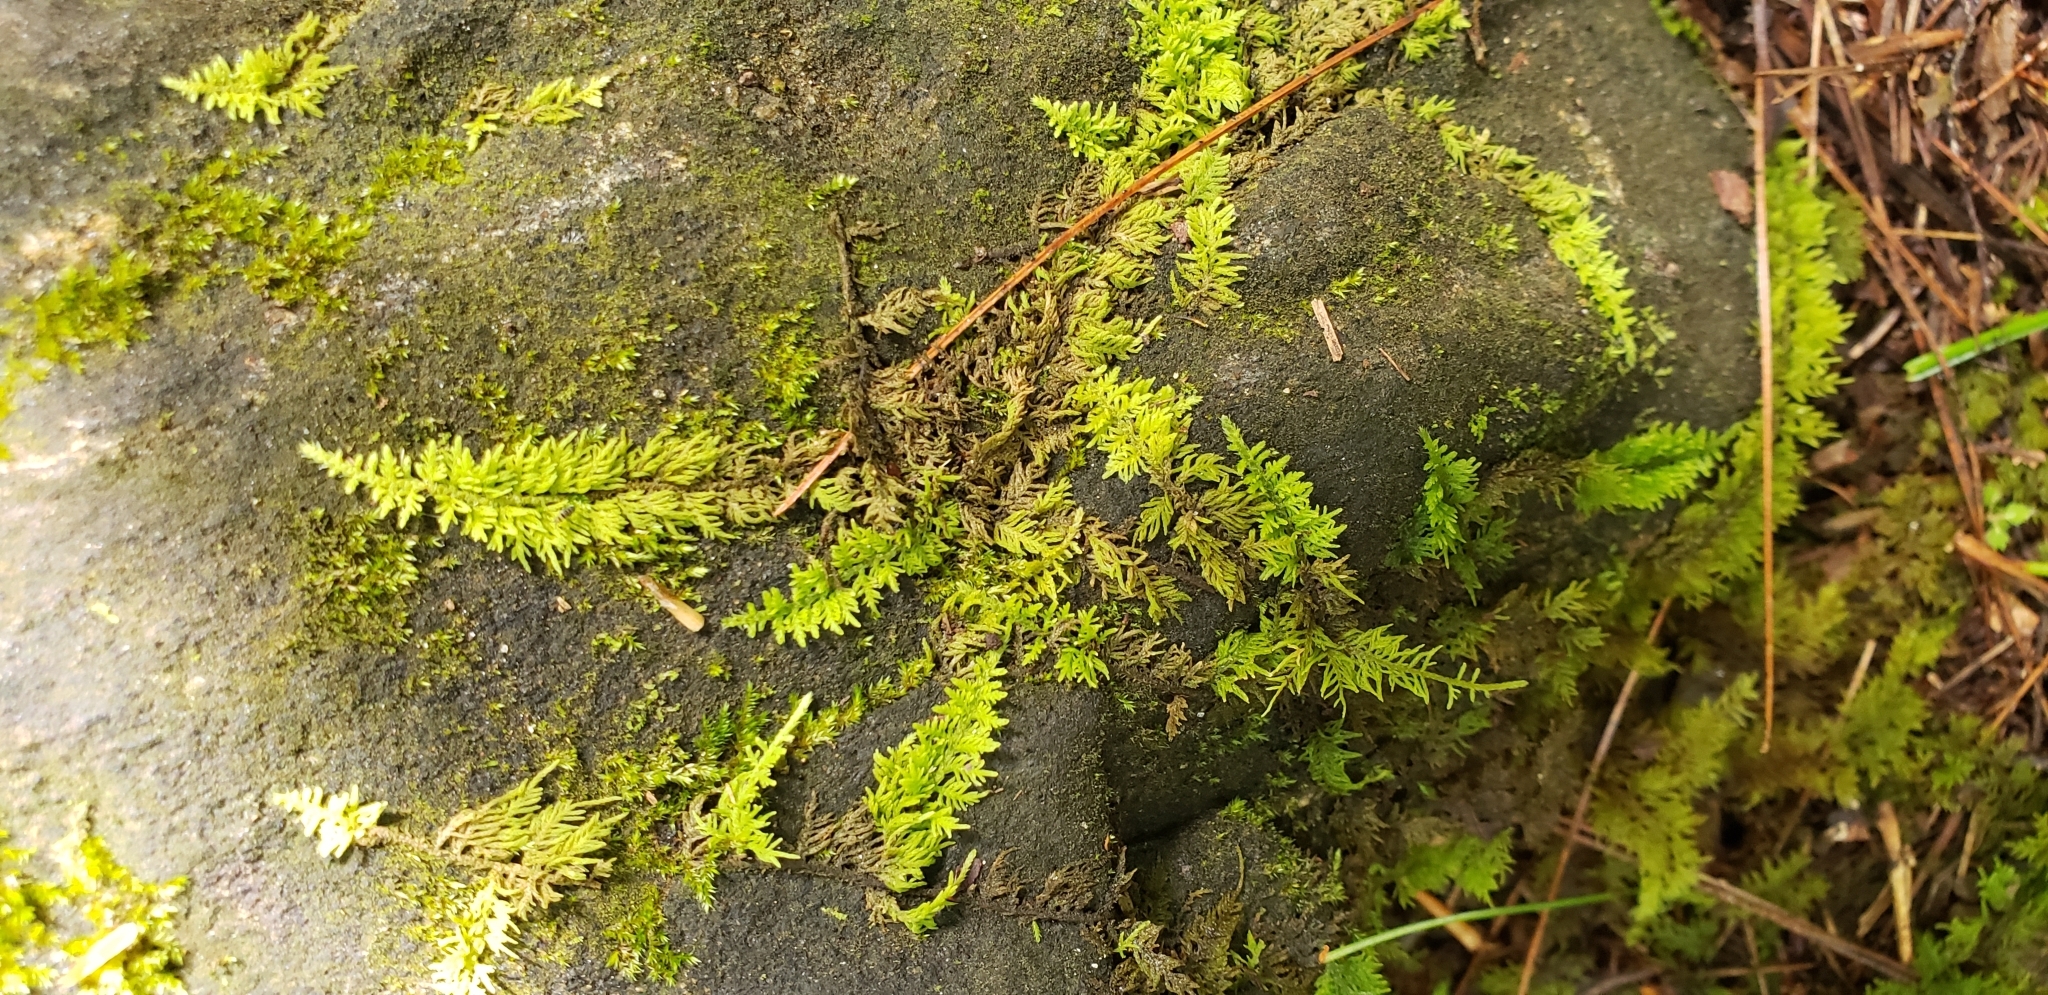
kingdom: Plantae
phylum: Bryophyta
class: Bryopsida
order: Hypnales
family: Thuidiaceae
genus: Thuidium
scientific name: Thuidium delicatulum
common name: Delicate fern moss
